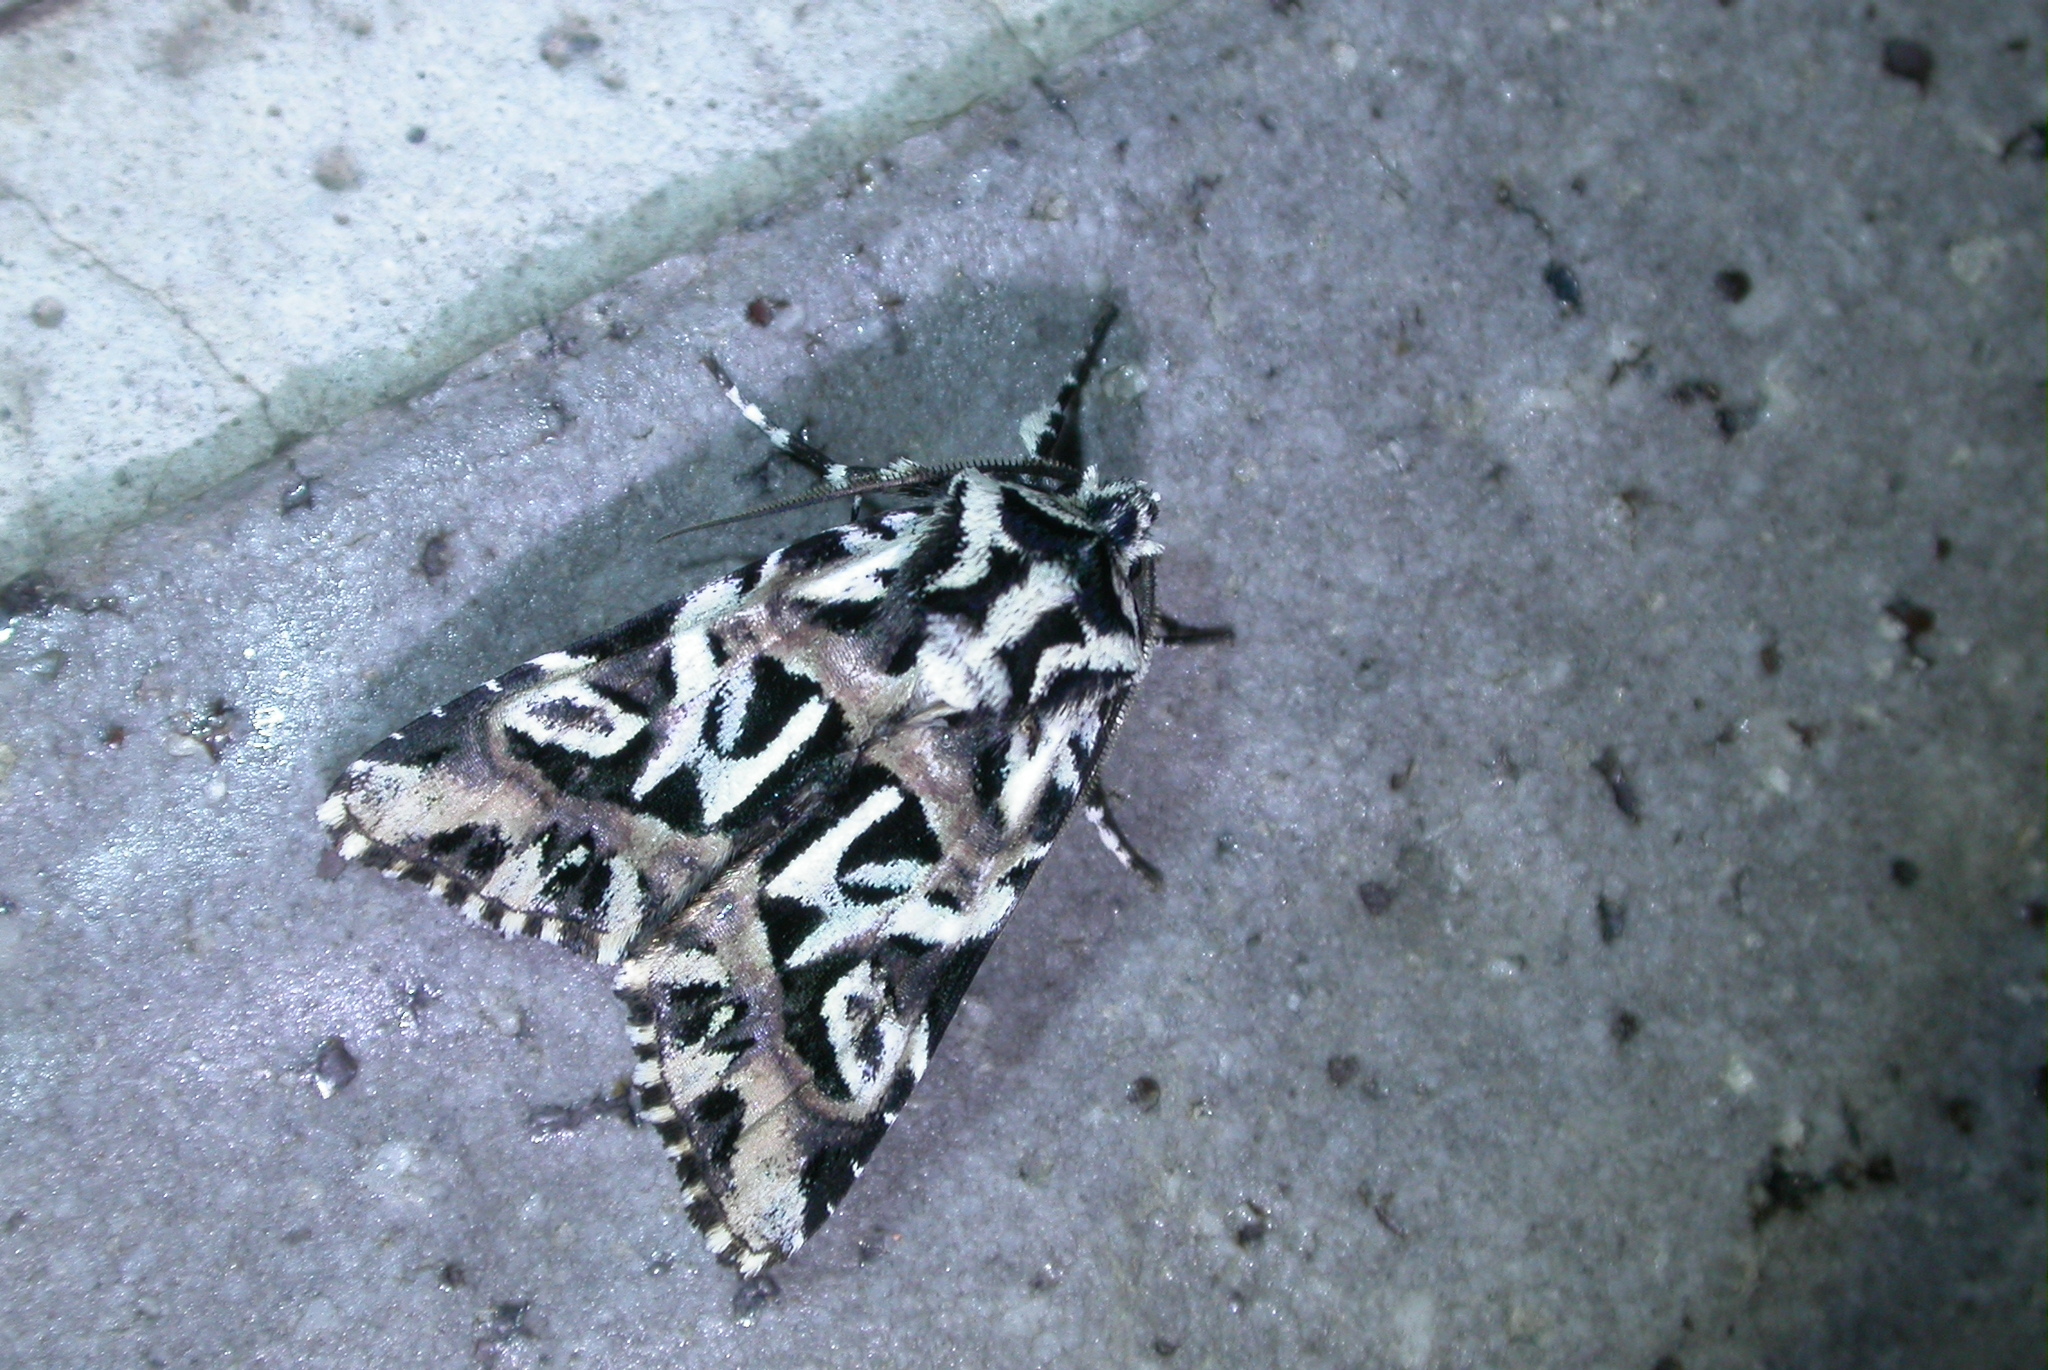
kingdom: Animalia
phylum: Arthropoda
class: Insecta
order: Lepidoptera
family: Noctuidae
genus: Chandata
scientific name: Chandata taiwana
